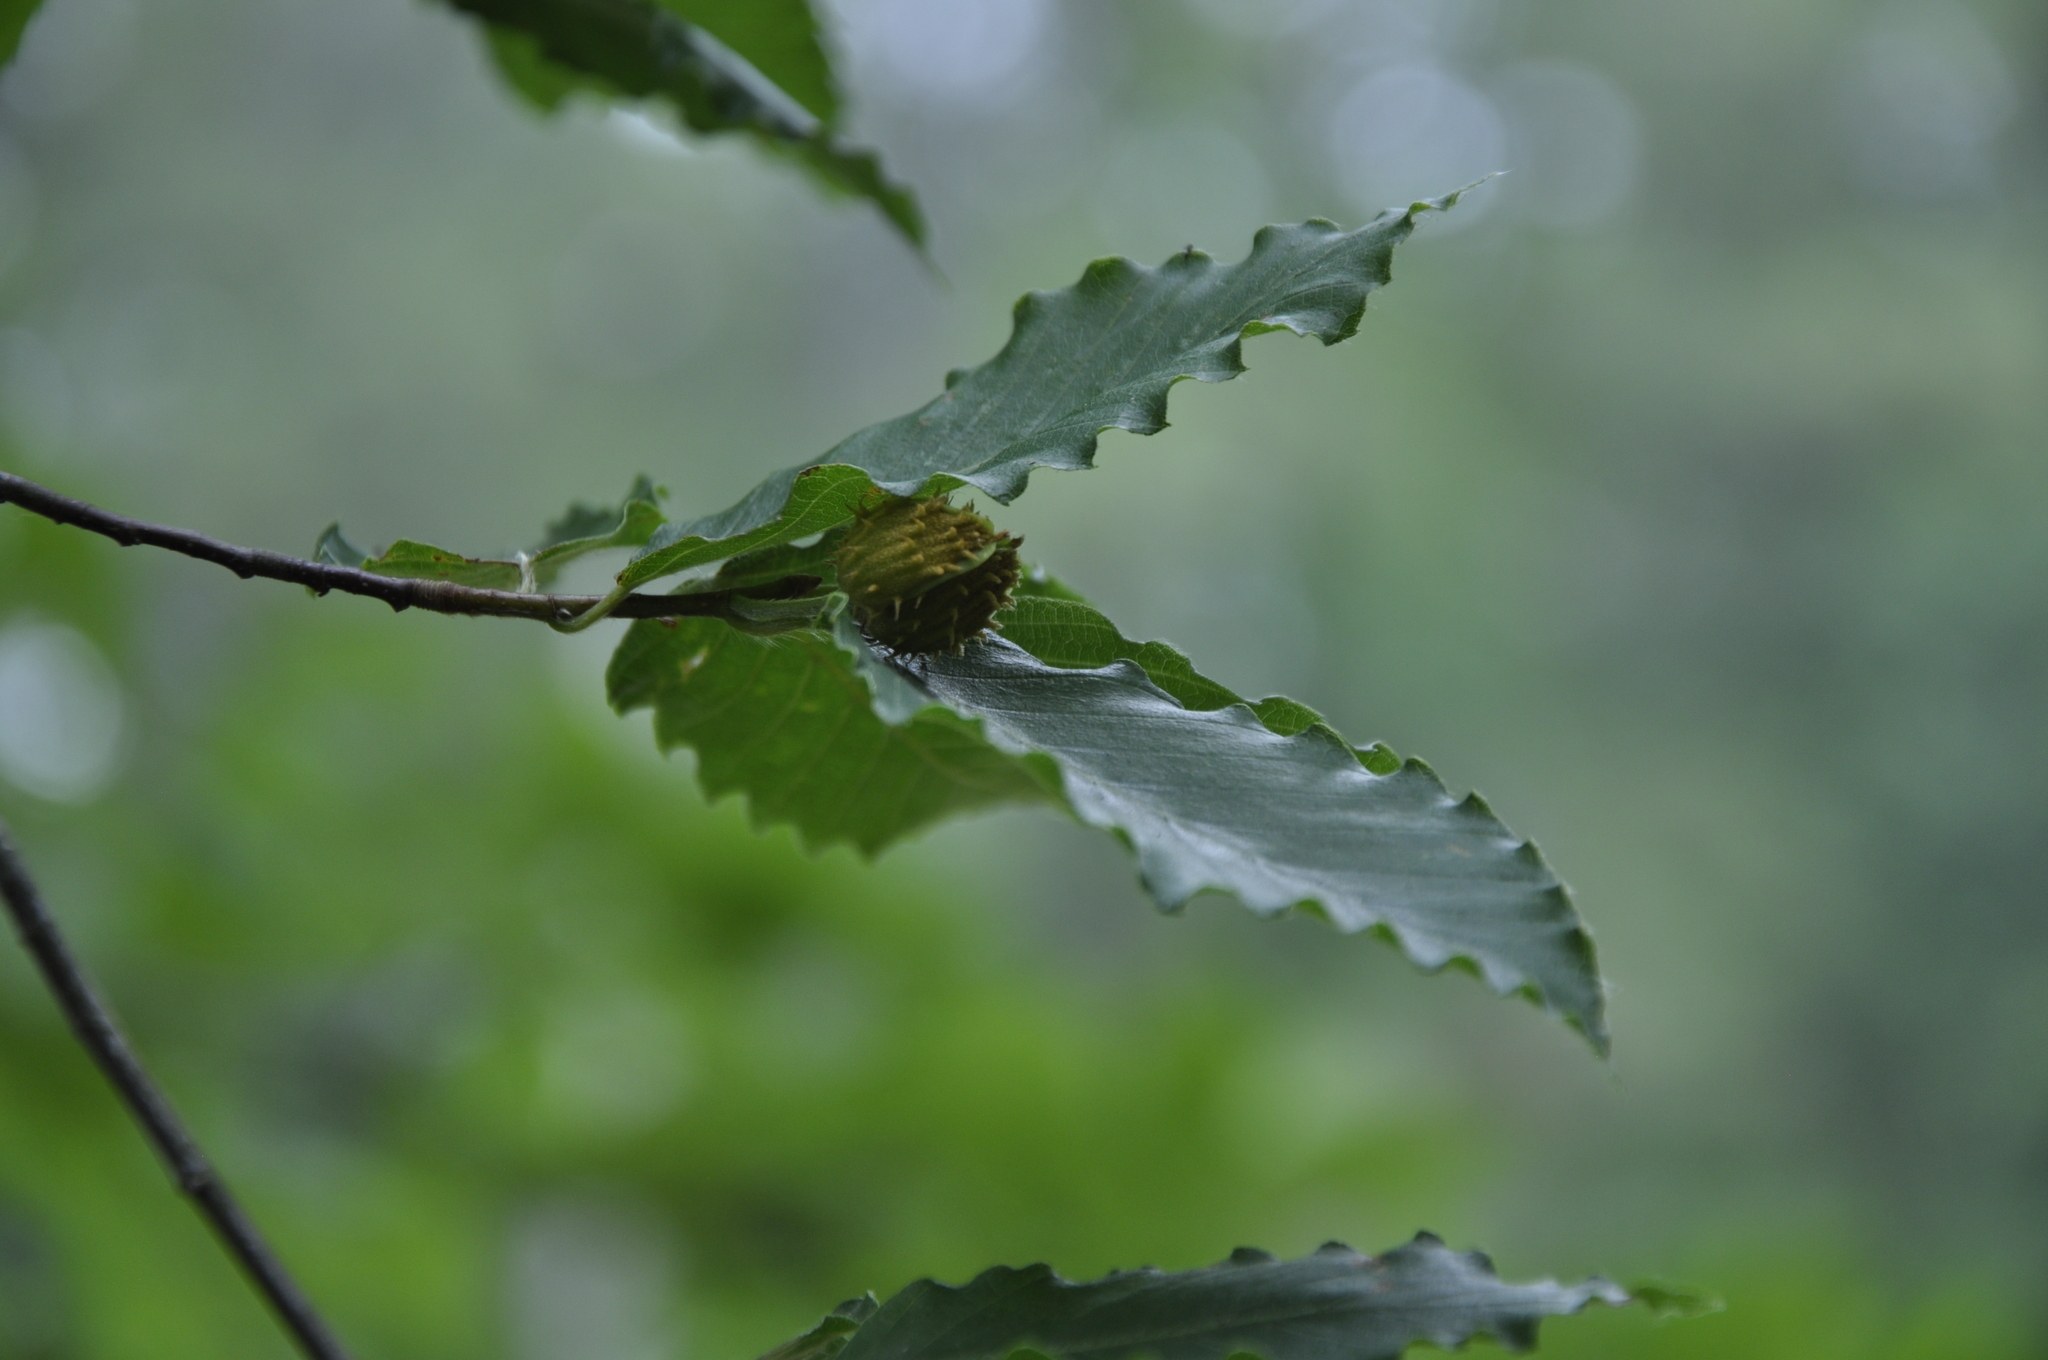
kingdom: Plantae
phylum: Tracheophyta
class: Magnoliopsida
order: Fagales
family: Fagaceae
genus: Fagus
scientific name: Fagus grandifolia
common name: American beech
